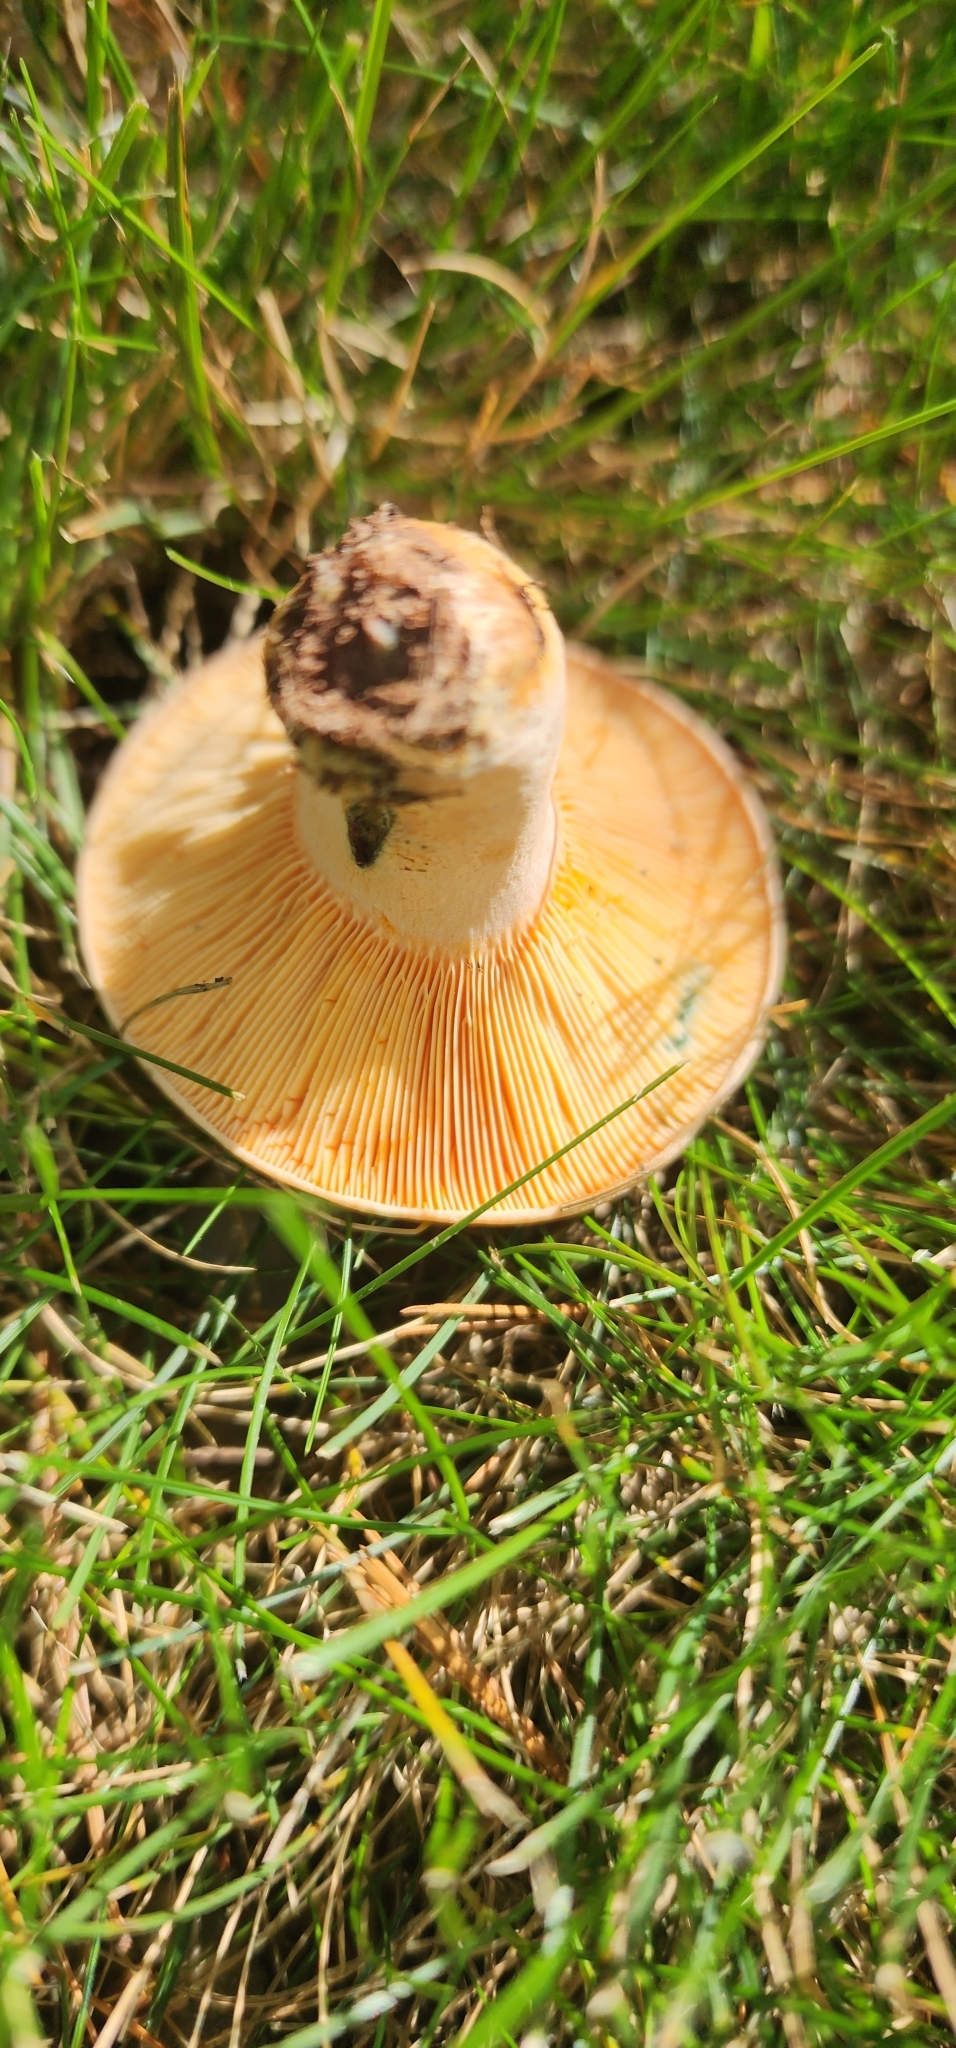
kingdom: Fungi
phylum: Basidiomycota
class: Agaricomycetes
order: Russulales
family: Russulaceae
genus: Lactarius
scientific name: Lactarius chelidonium
